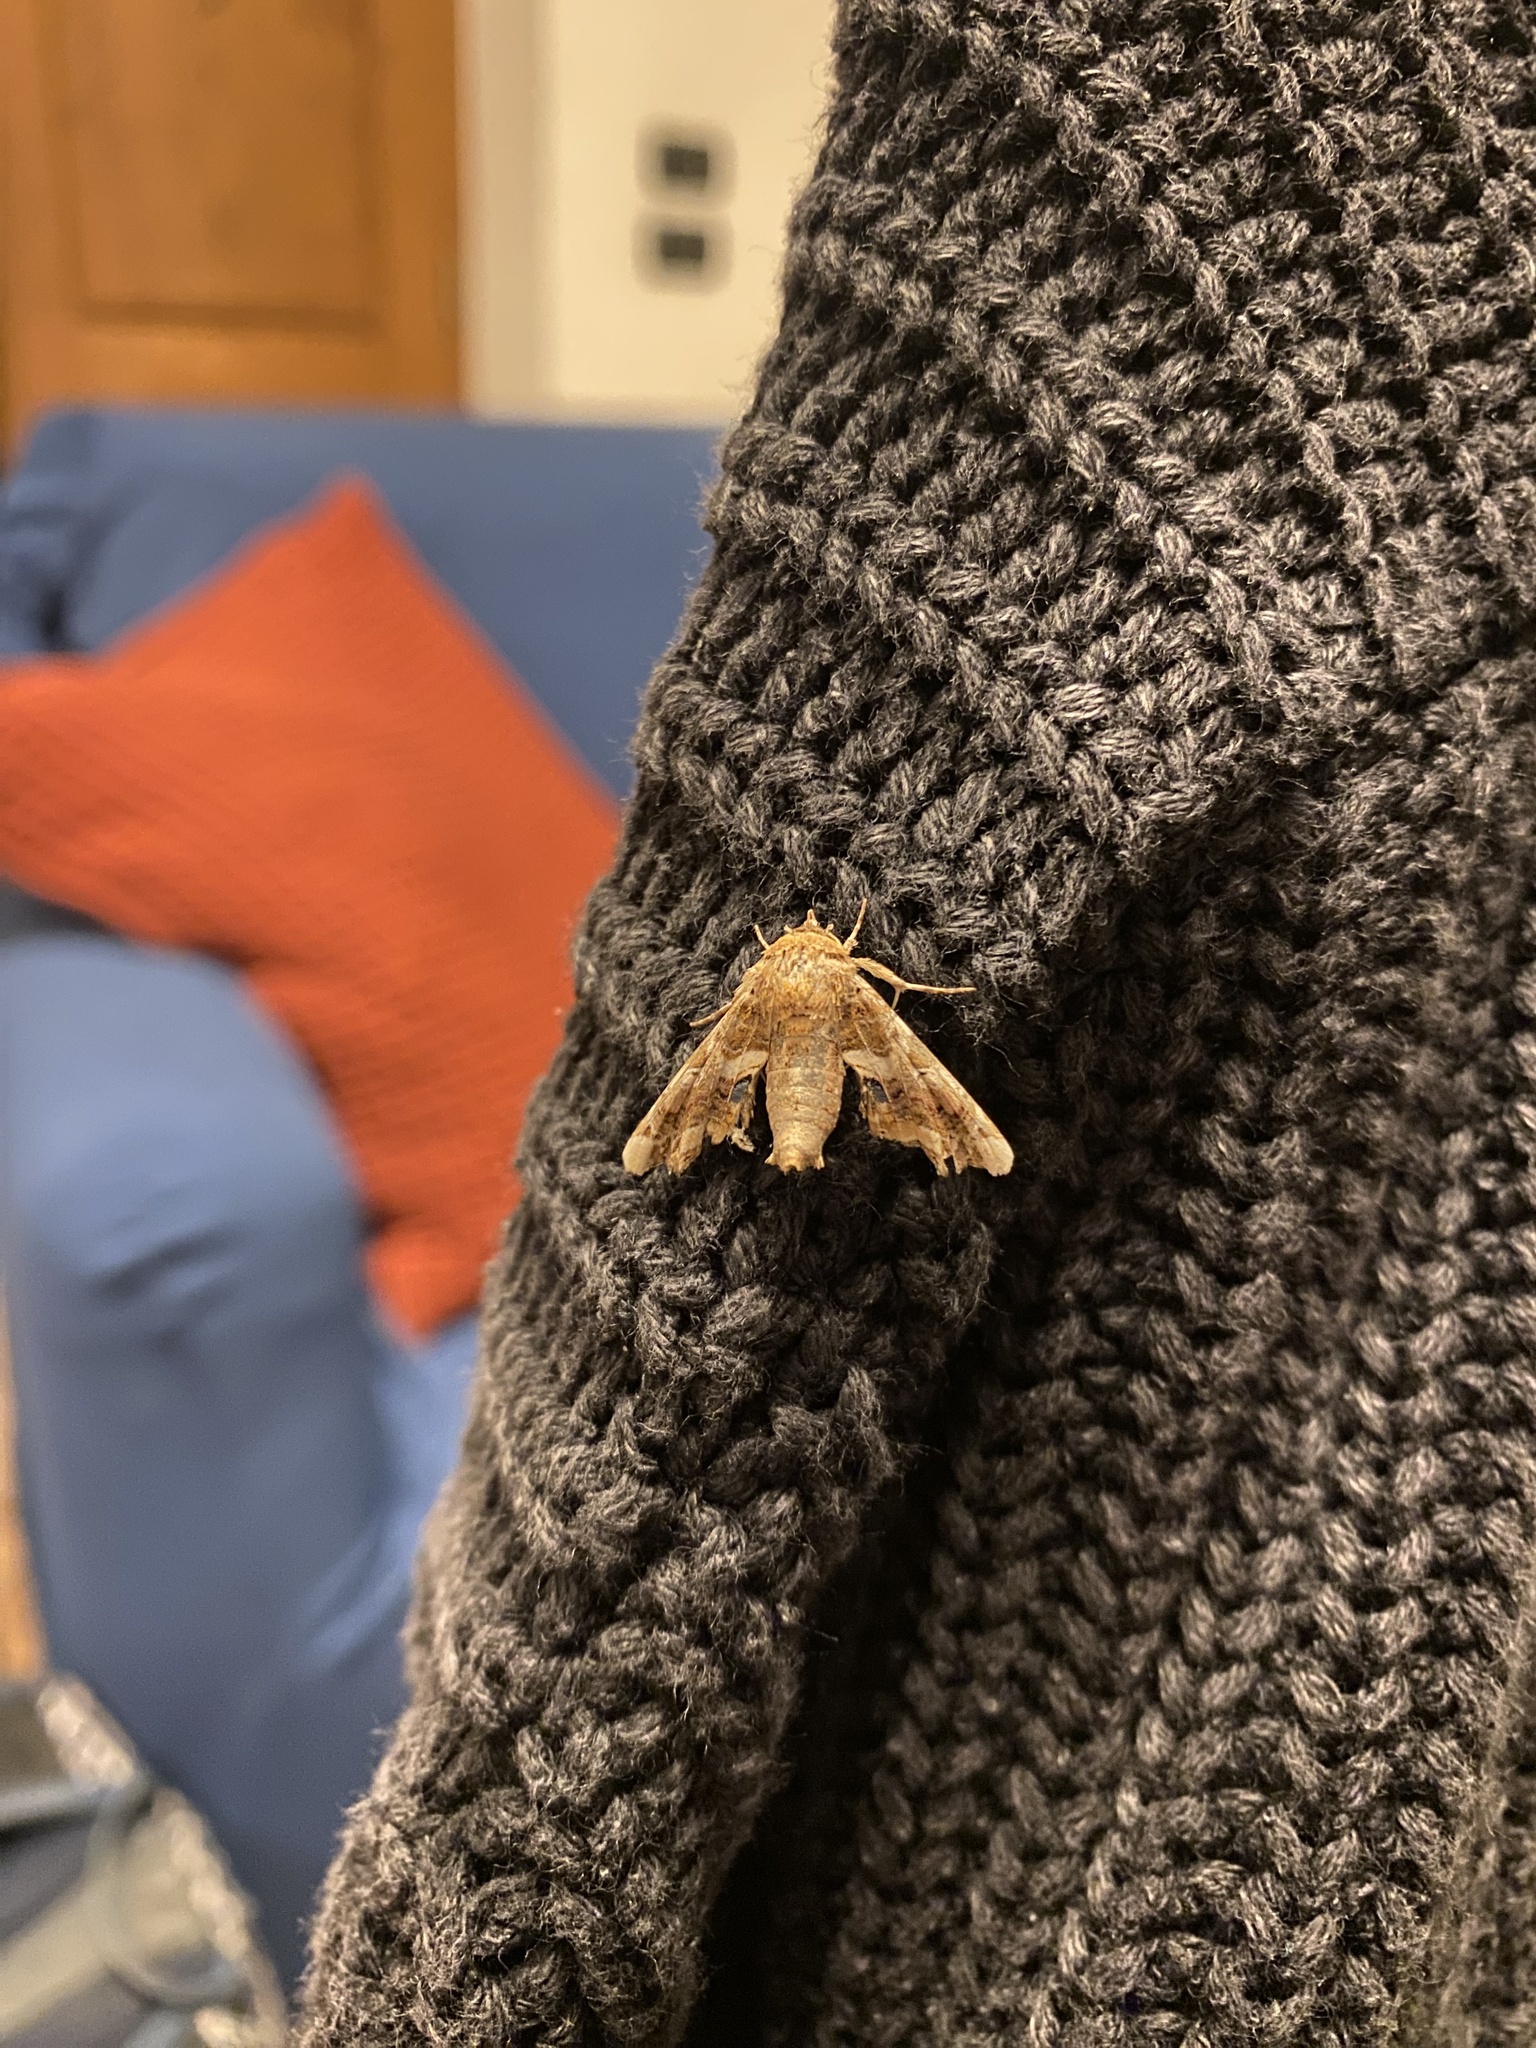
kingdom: Animalia
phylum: Arthropoda
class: Insecta
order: Lepidoptera
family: Euteliidae
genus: Eutelia
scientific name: Eutelia adulatrix
